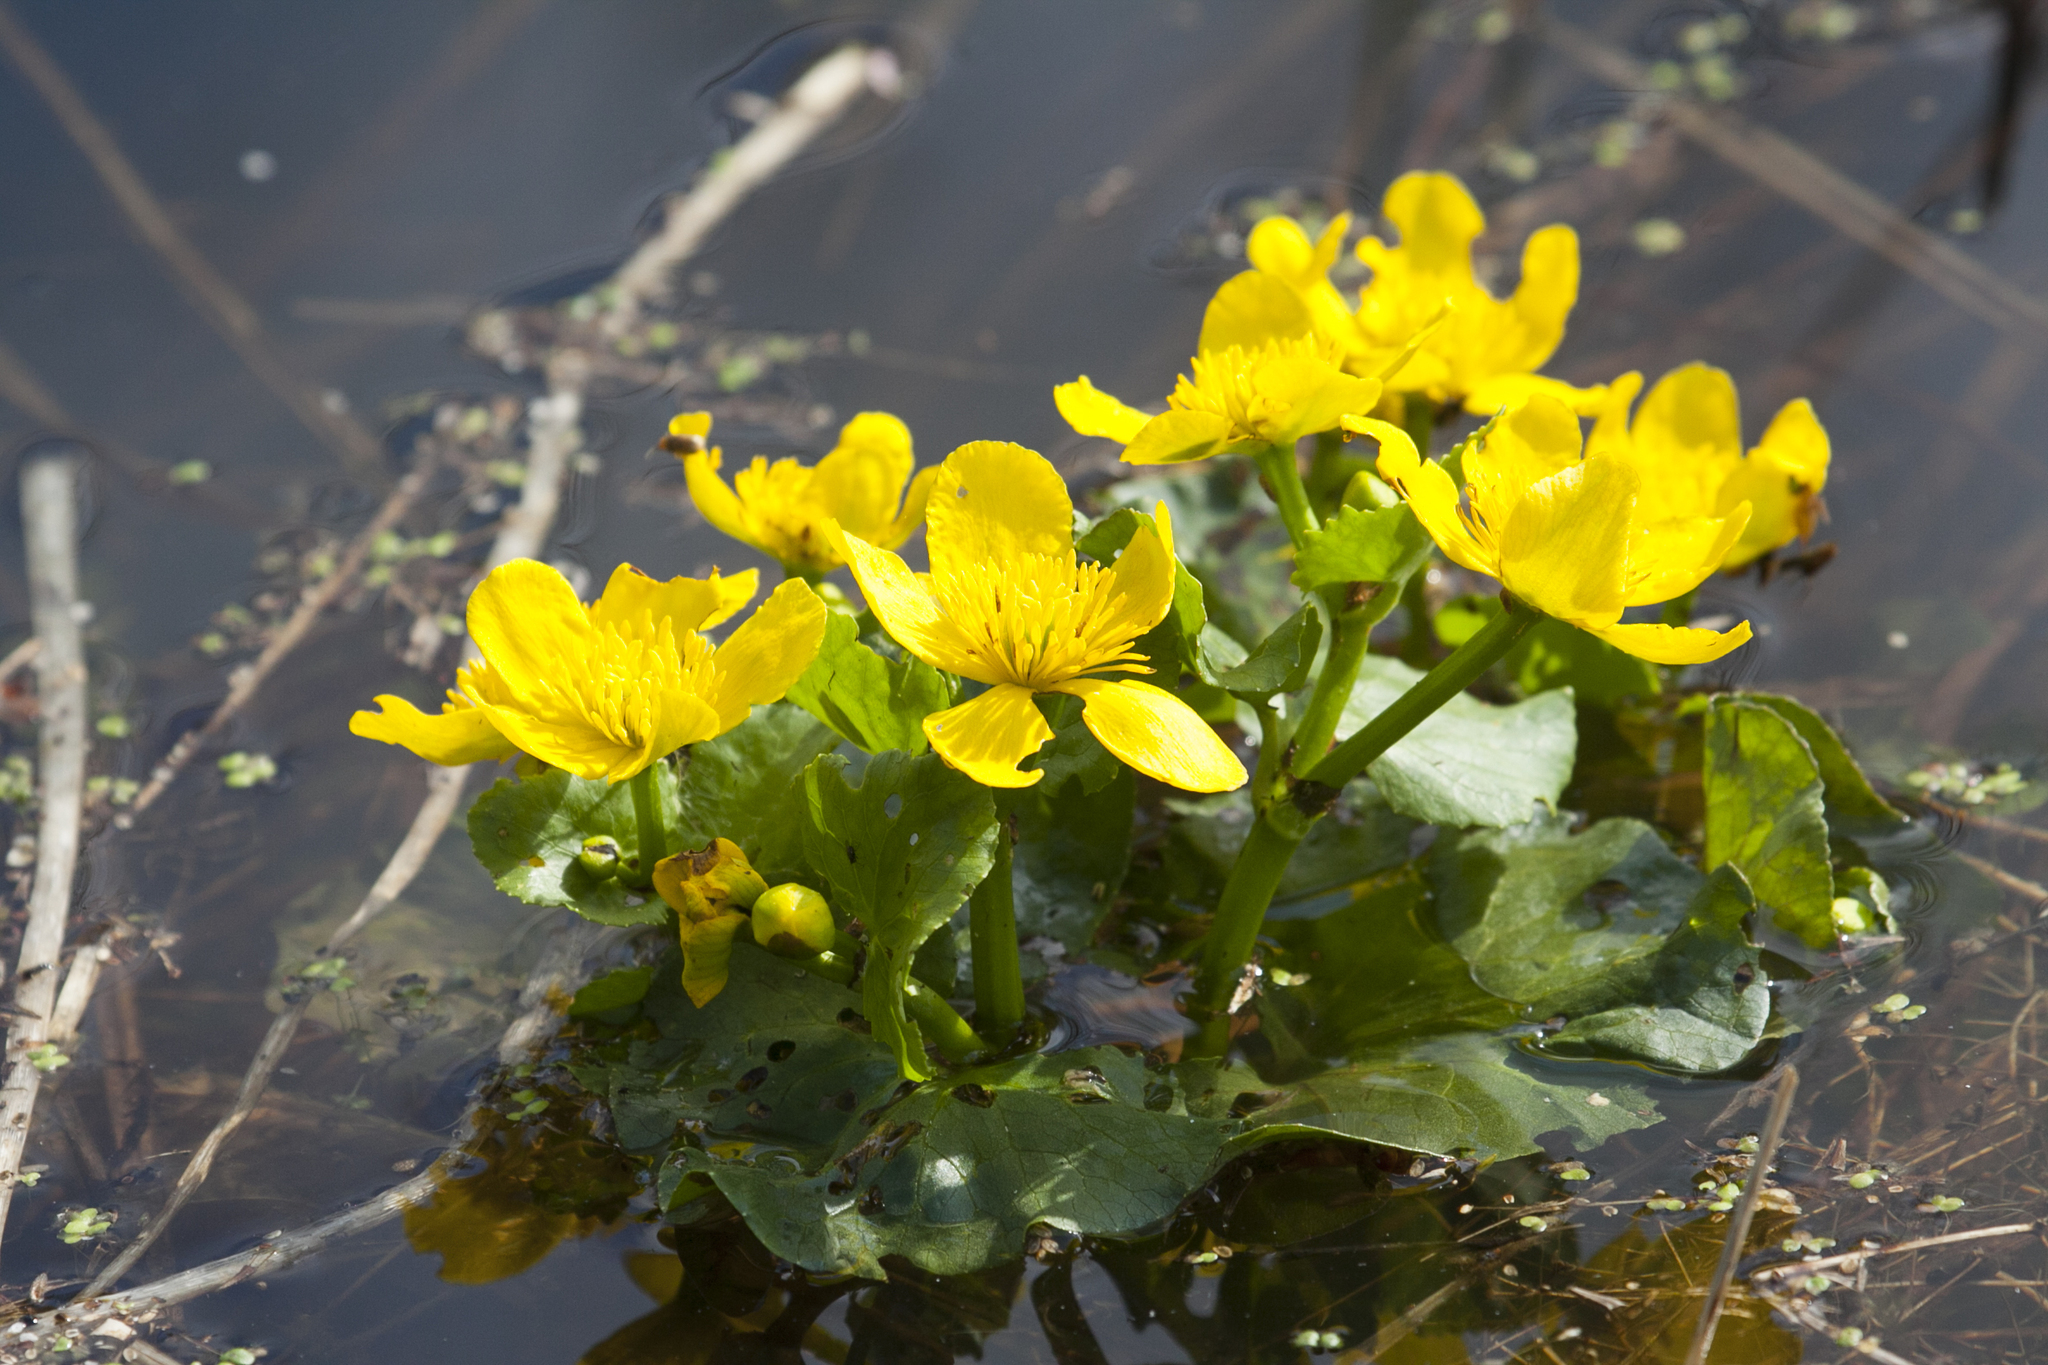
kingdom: Plantae
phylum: Tracheophyta
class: Magnoliopsida
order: Ranunculales
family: Ranunculaceae
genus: Caltha
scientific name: Caltha palustris
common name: Marsh marigold
